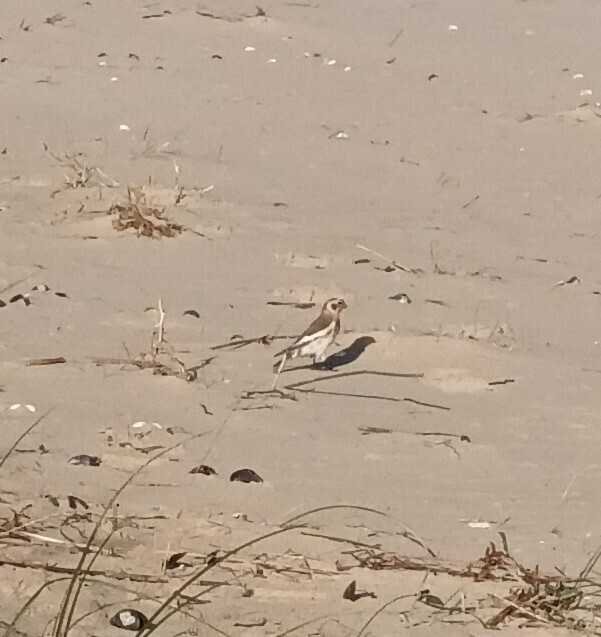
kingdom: Animalia
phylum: Chordata
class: Aves
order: Passeriformes
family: Calcariidae
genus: Plectrophenax
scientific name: Plectrophenax nivalis
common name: Snow bunting
